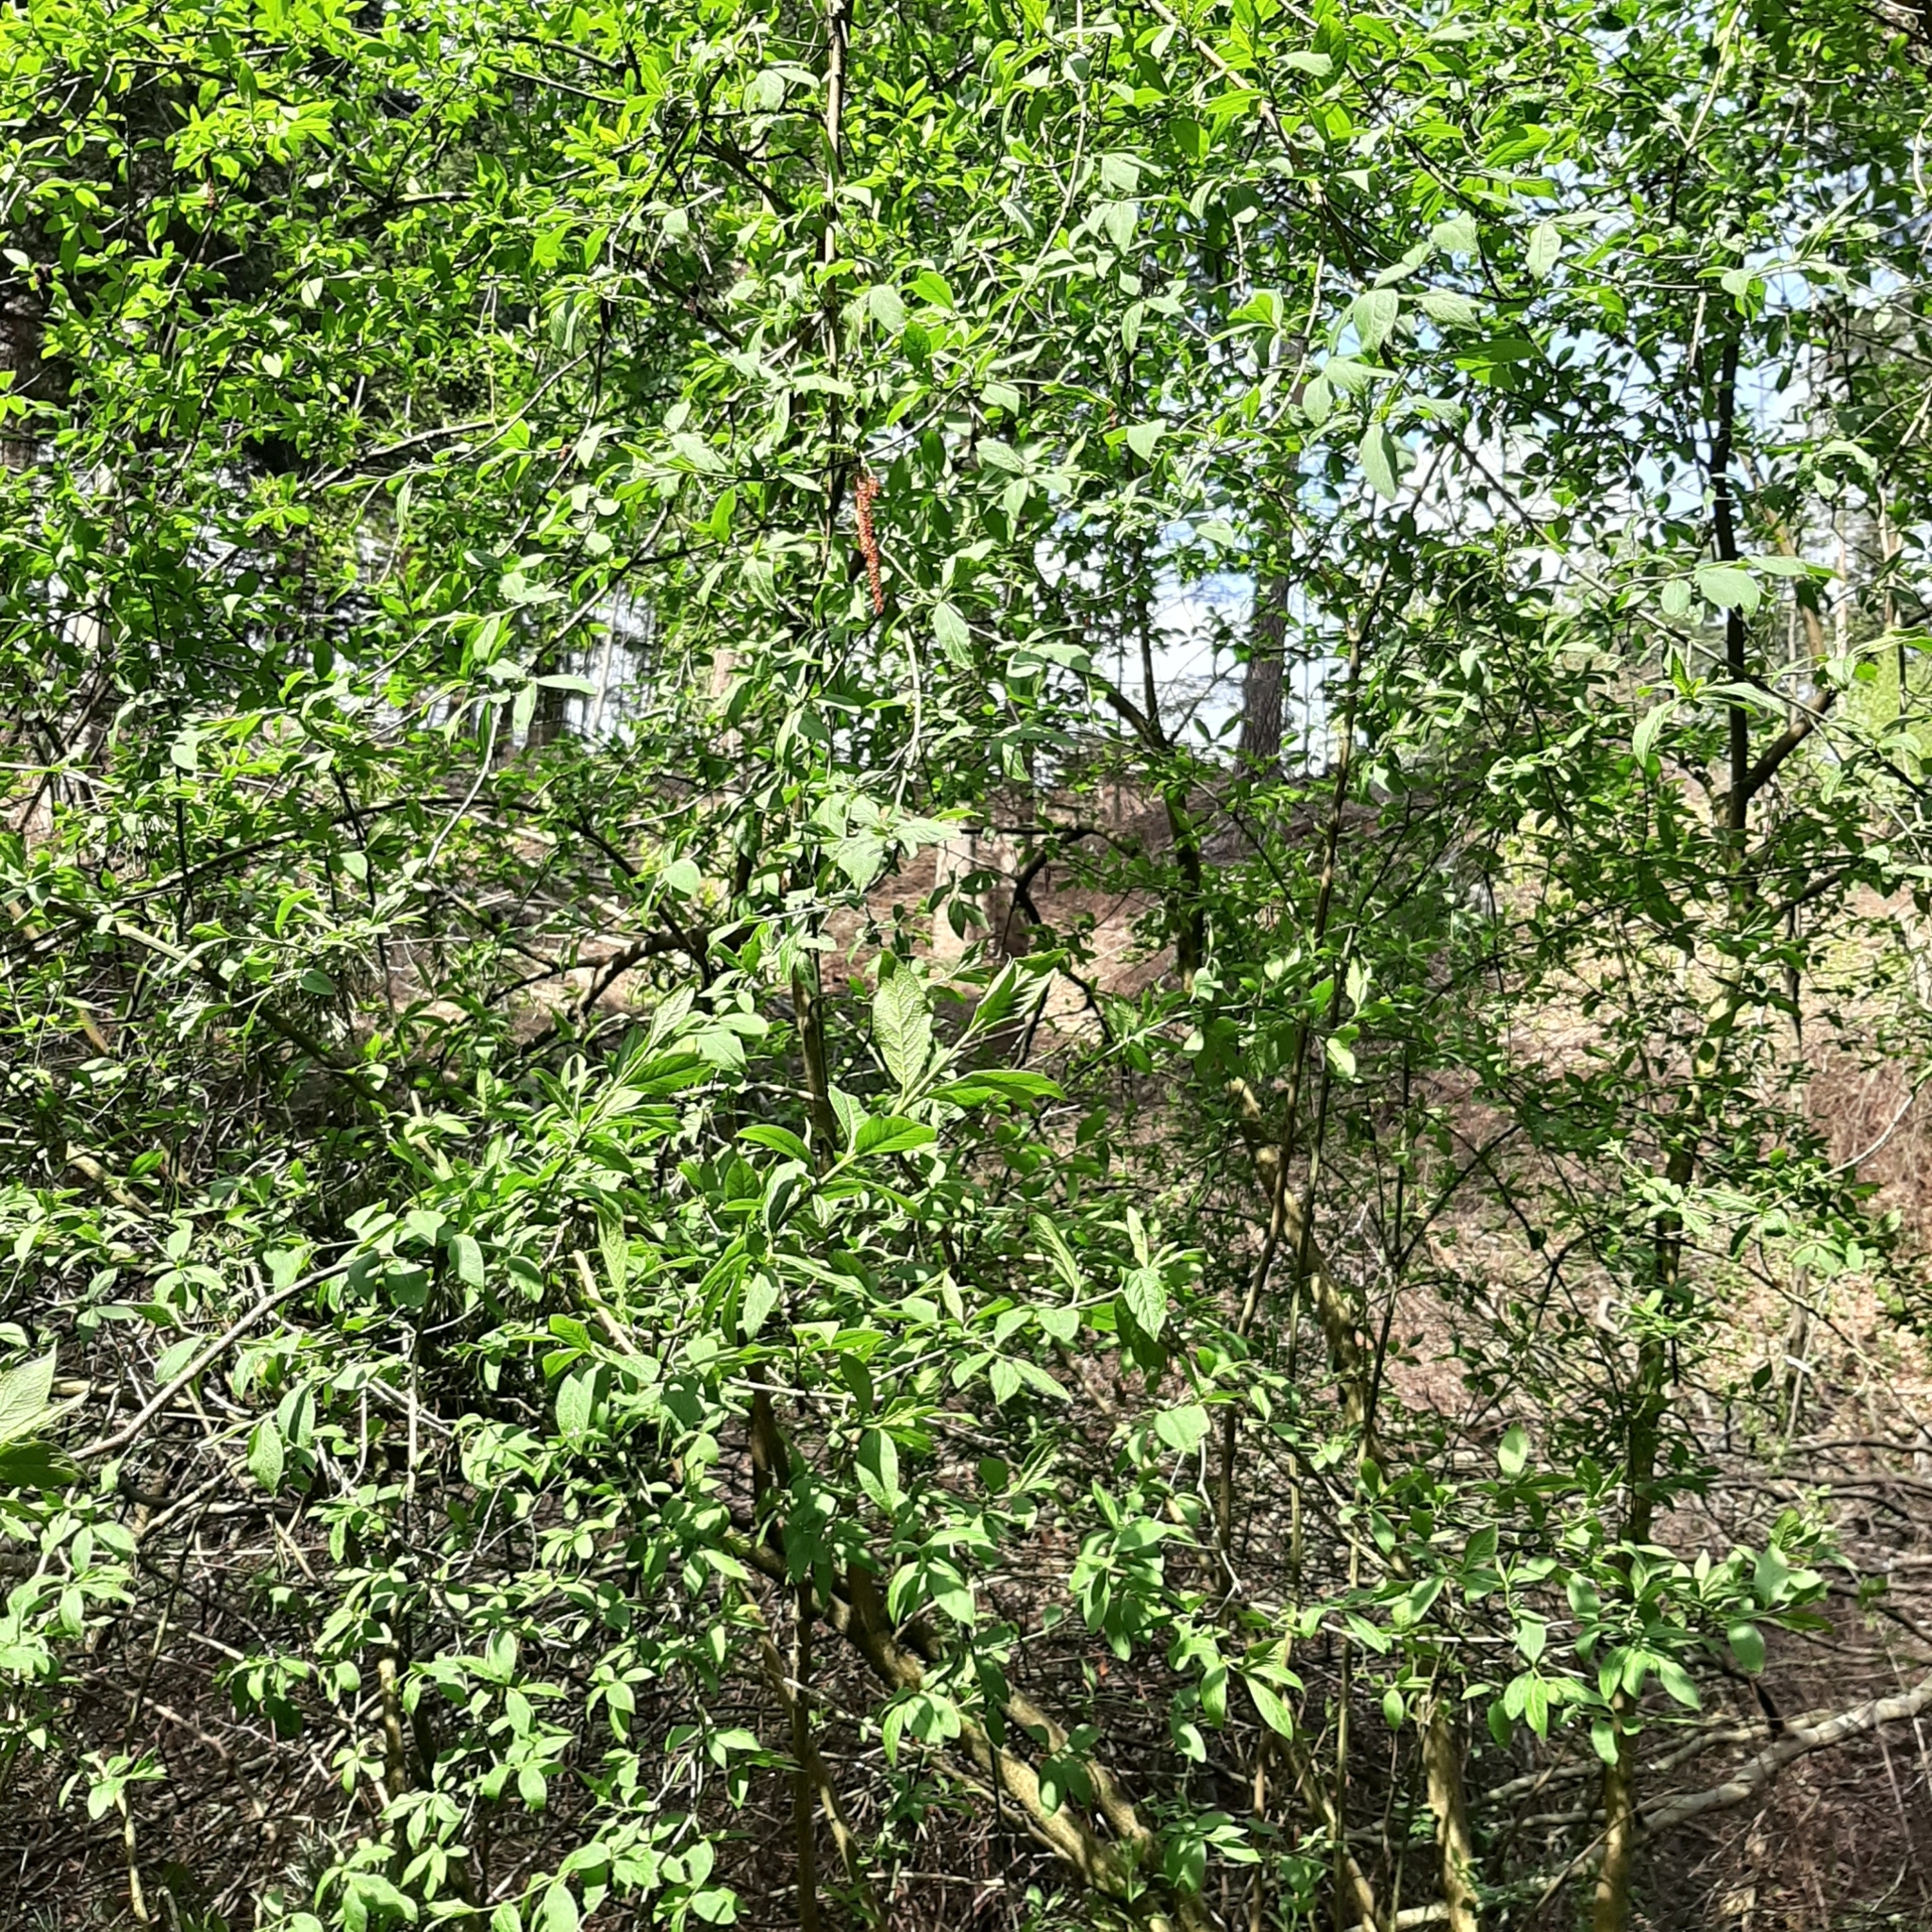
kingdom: Plantae
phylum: Tracheophyta
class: Magnoliopsida
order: Celastrales
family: Celastraceae
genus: Euonymus
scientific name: Euonymus europaeus
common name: Spindle
